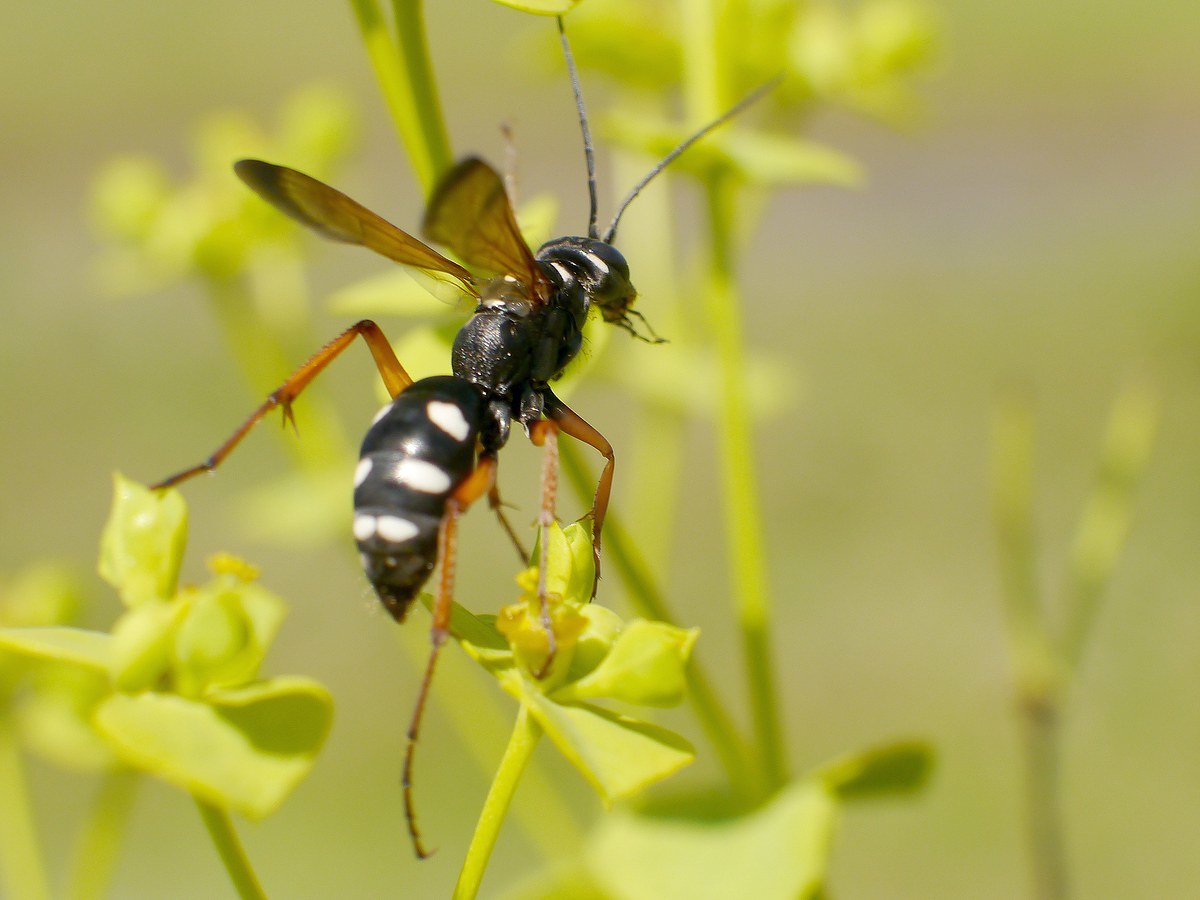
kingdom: Animalia
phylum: Arthropoda
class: Insecta
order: Hymenoptera
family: Pompilidae
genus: Cryptocheilus
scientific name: Cryptocheilus variabilis
